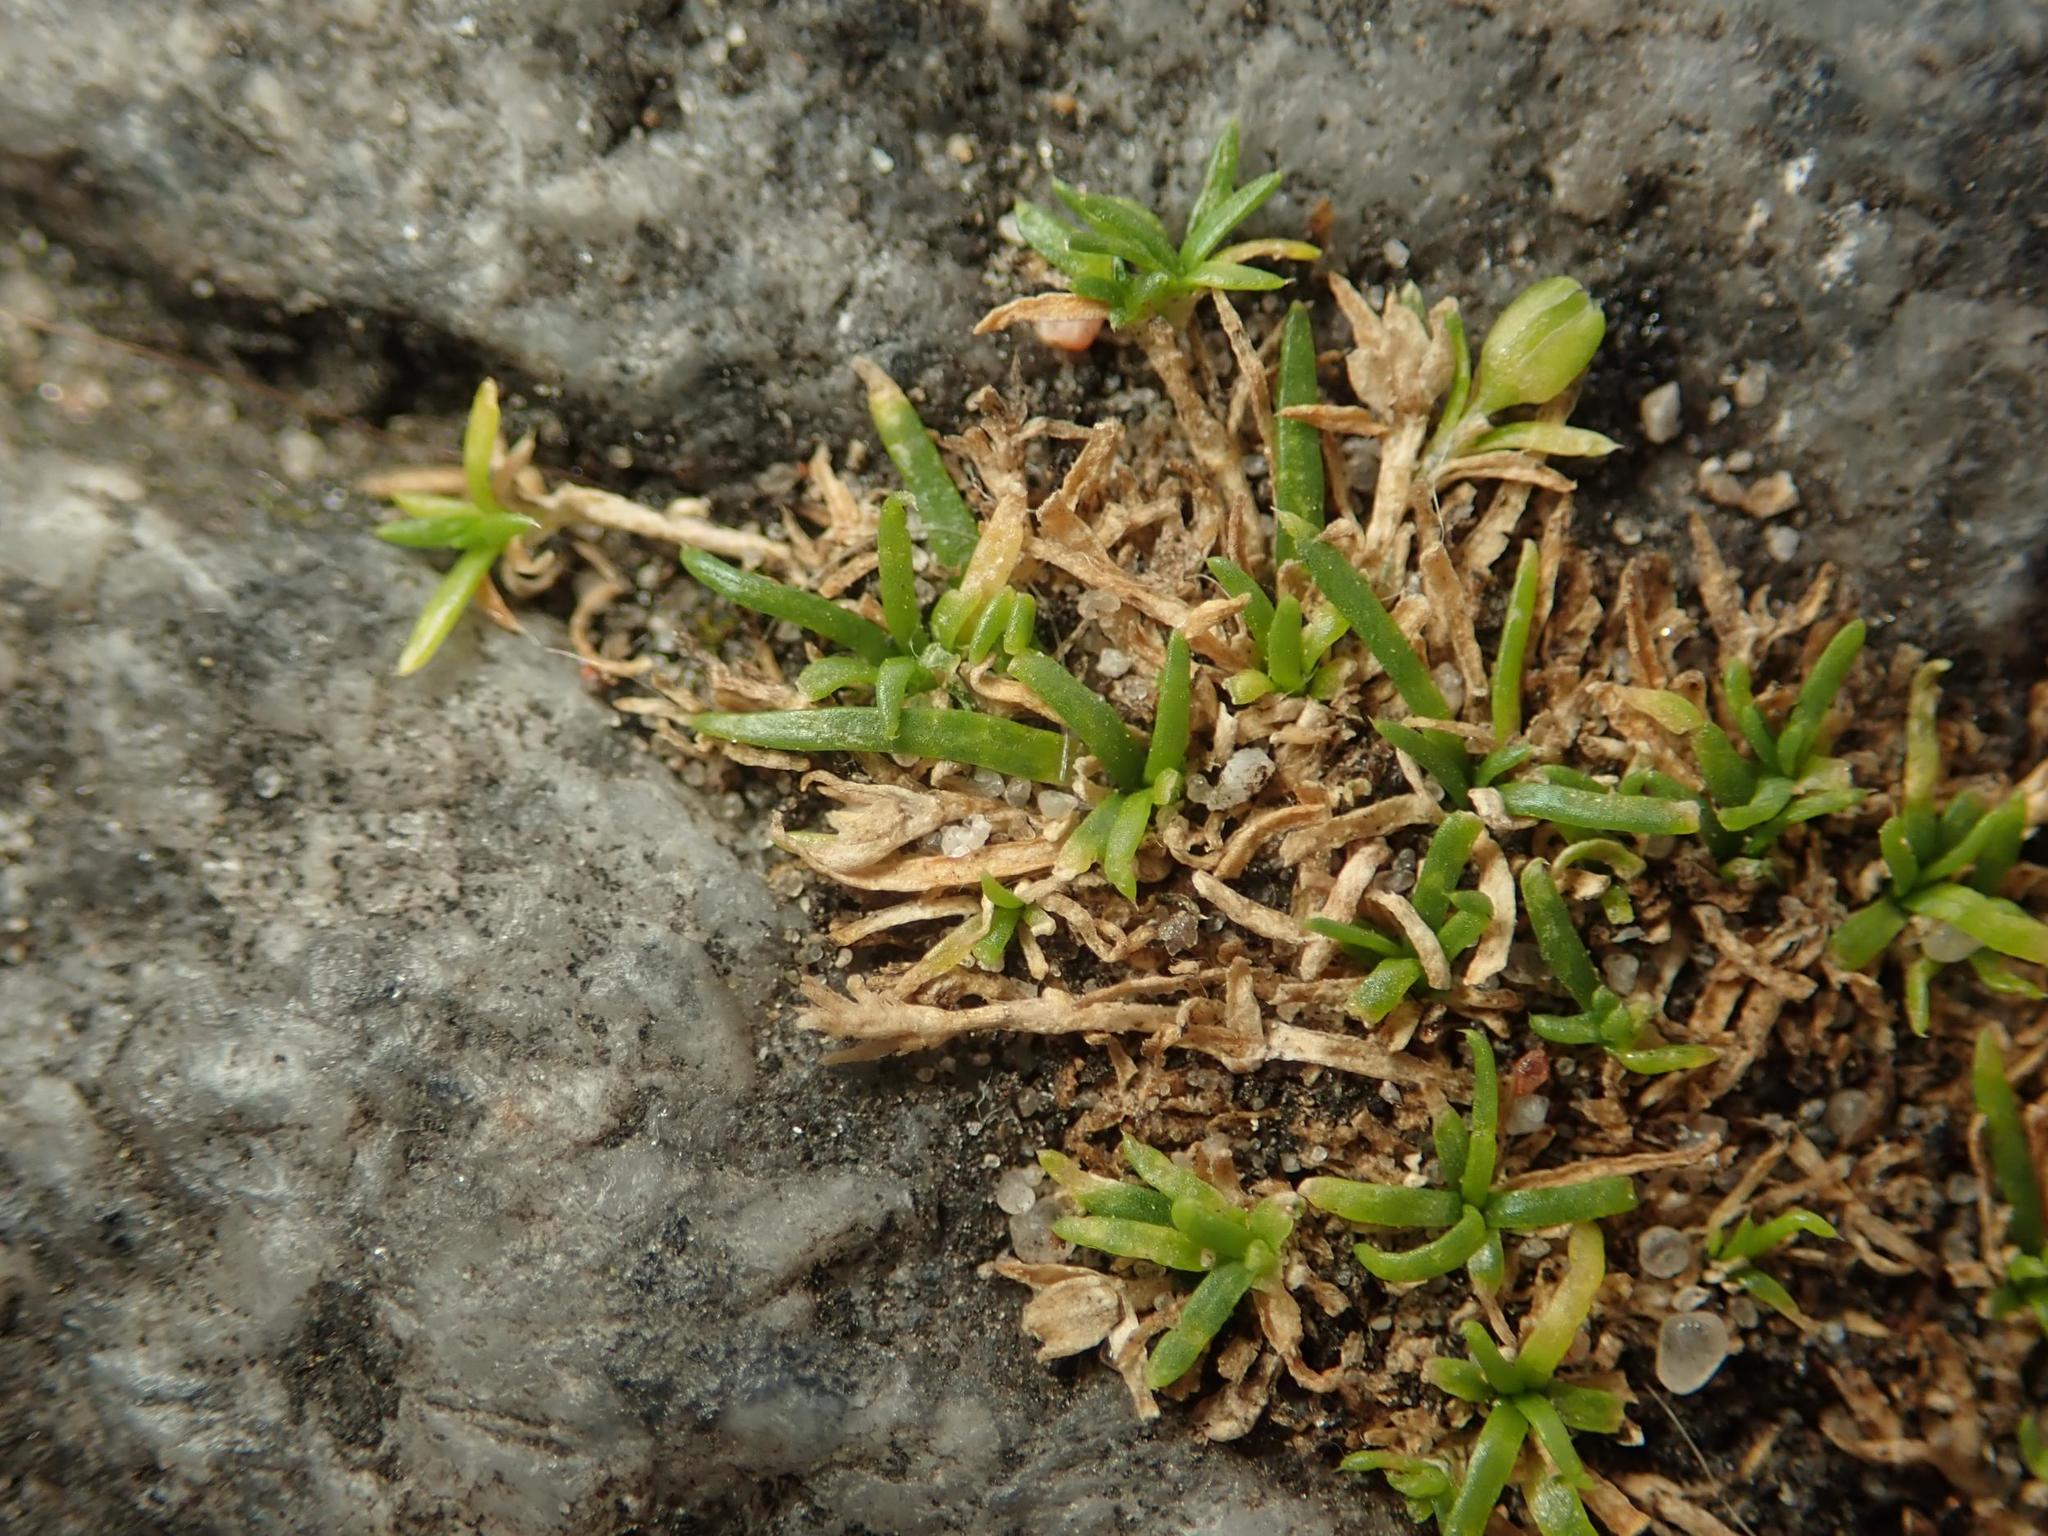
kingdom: Plantae
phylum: Tracheophyta
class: Magnoliopsida
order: Caryophyllales
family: Caryophyllaceae
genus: Sagina
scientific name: Sagina procumbens
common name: Procumbent pearlwort
